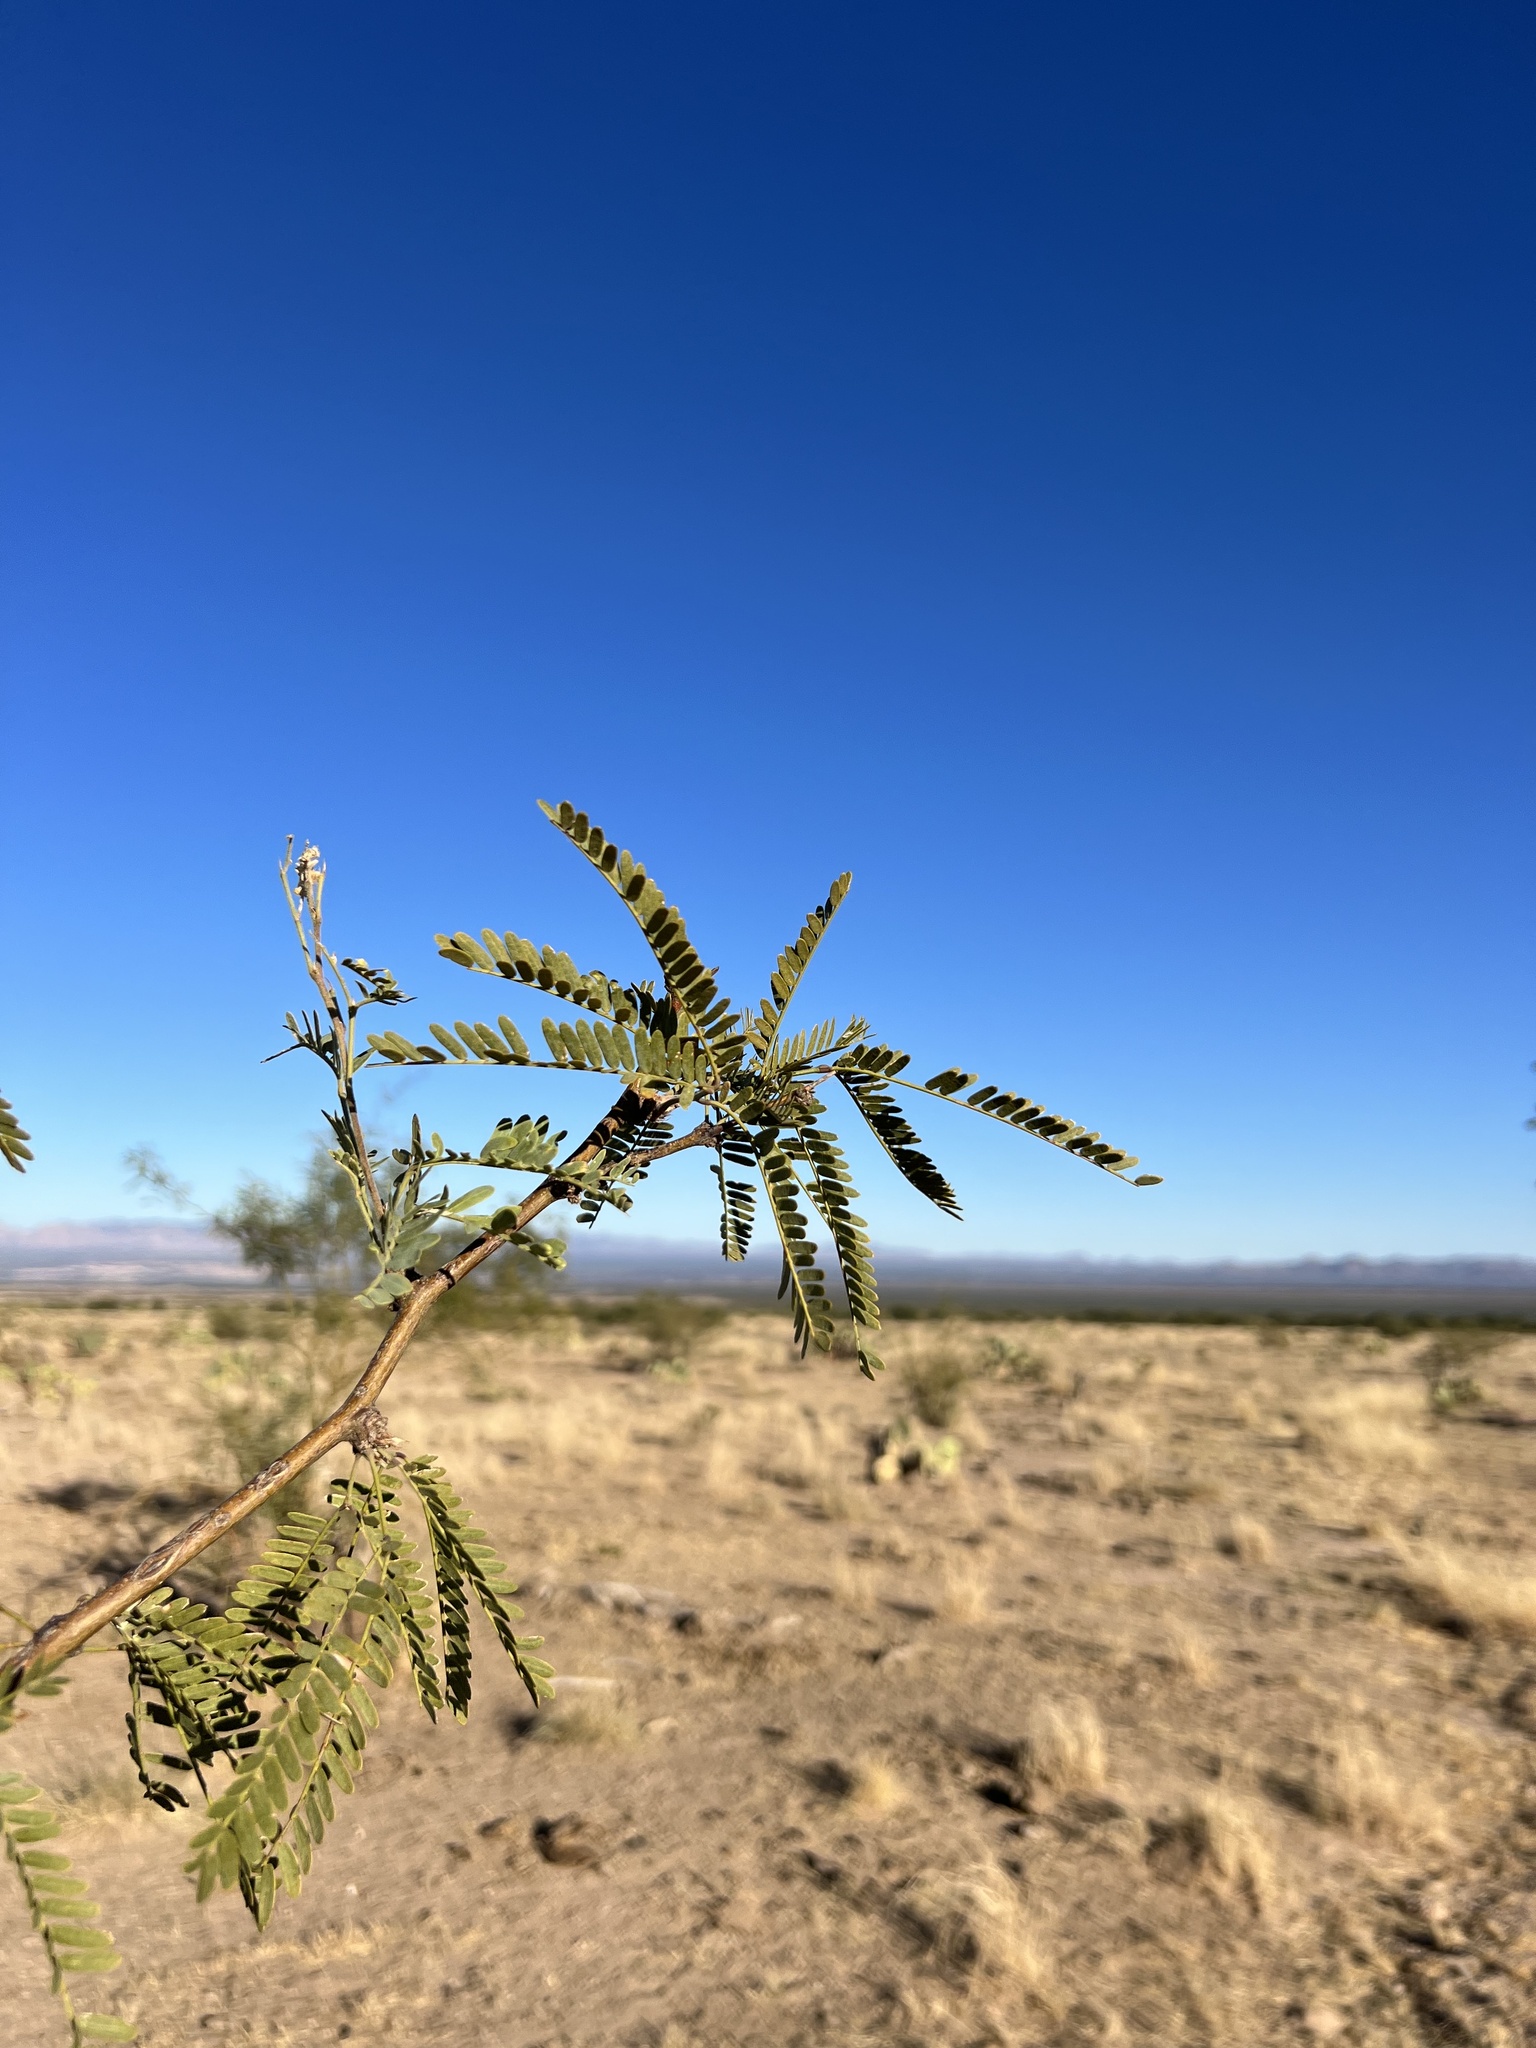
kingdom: Plantae
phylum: Tracheophyta
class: Magnoliopsida
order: Fabales
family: Fabaceae
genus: Prosopis
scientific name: Prosopis velutina
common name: Velvet mesquite
